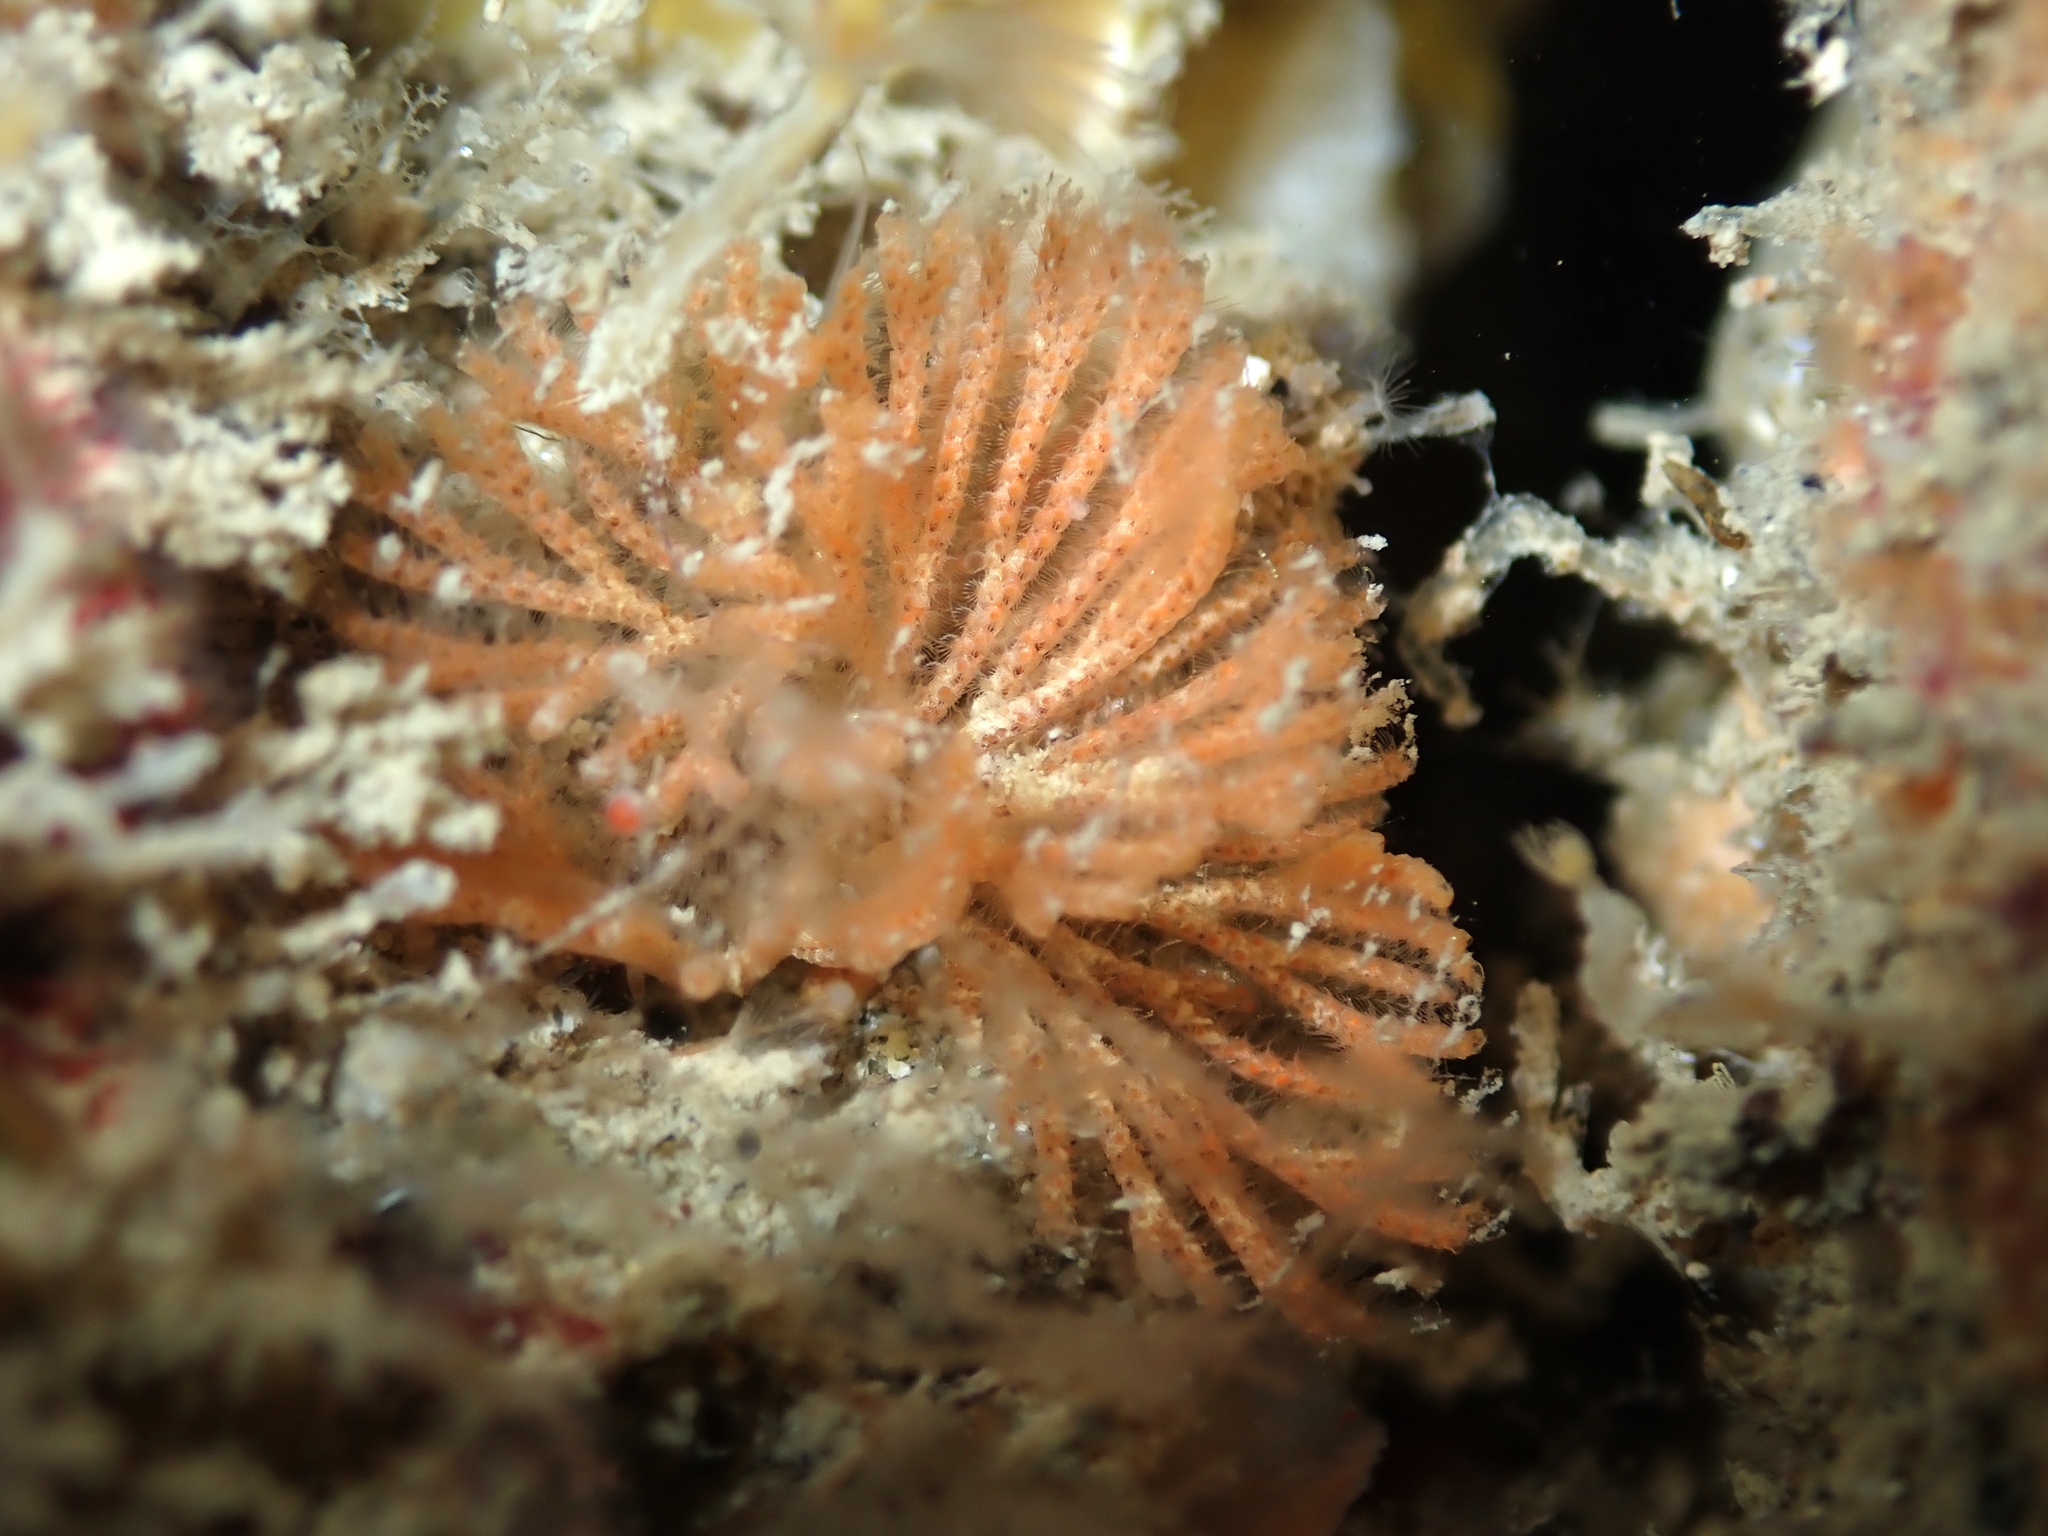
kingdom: Animalia
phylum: Bryozoa
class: Gymnolaemata
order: Cheilostomatida
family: Candidae
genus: Caberea
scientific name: Caberea zelandica
